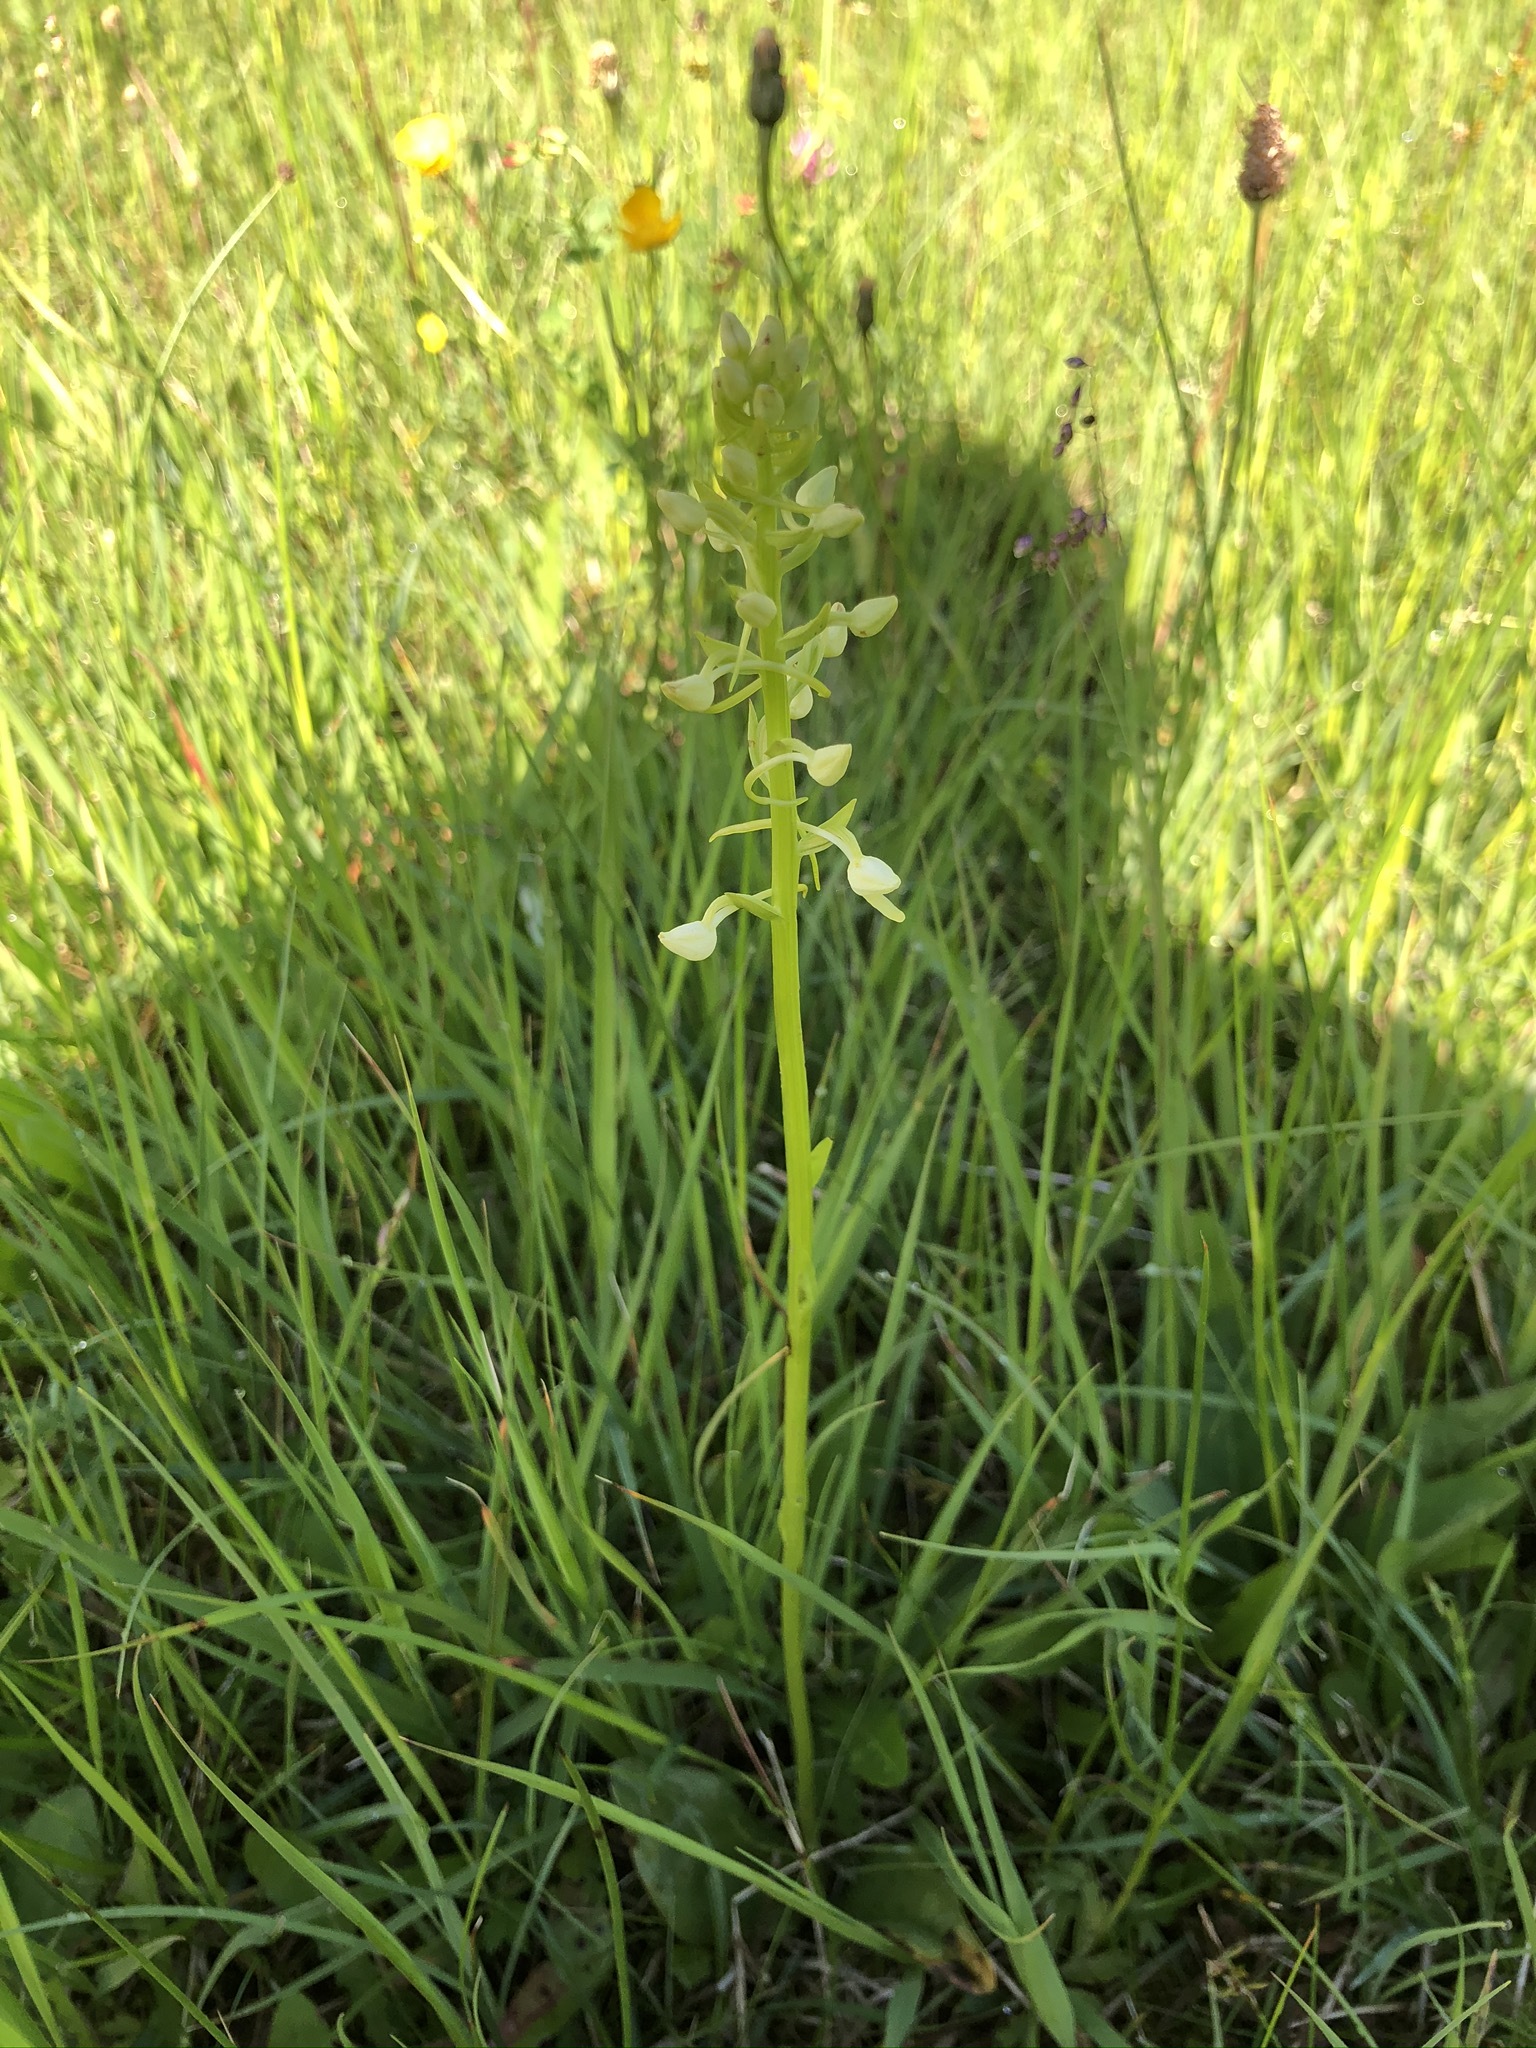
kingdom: Plantae
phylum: Tracheophyta
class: Liliopsida
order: Asparagales
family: Orchidaceae
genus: Platanthera
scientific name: Platanthera bifolia
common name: Lesser butterfly-orchid
